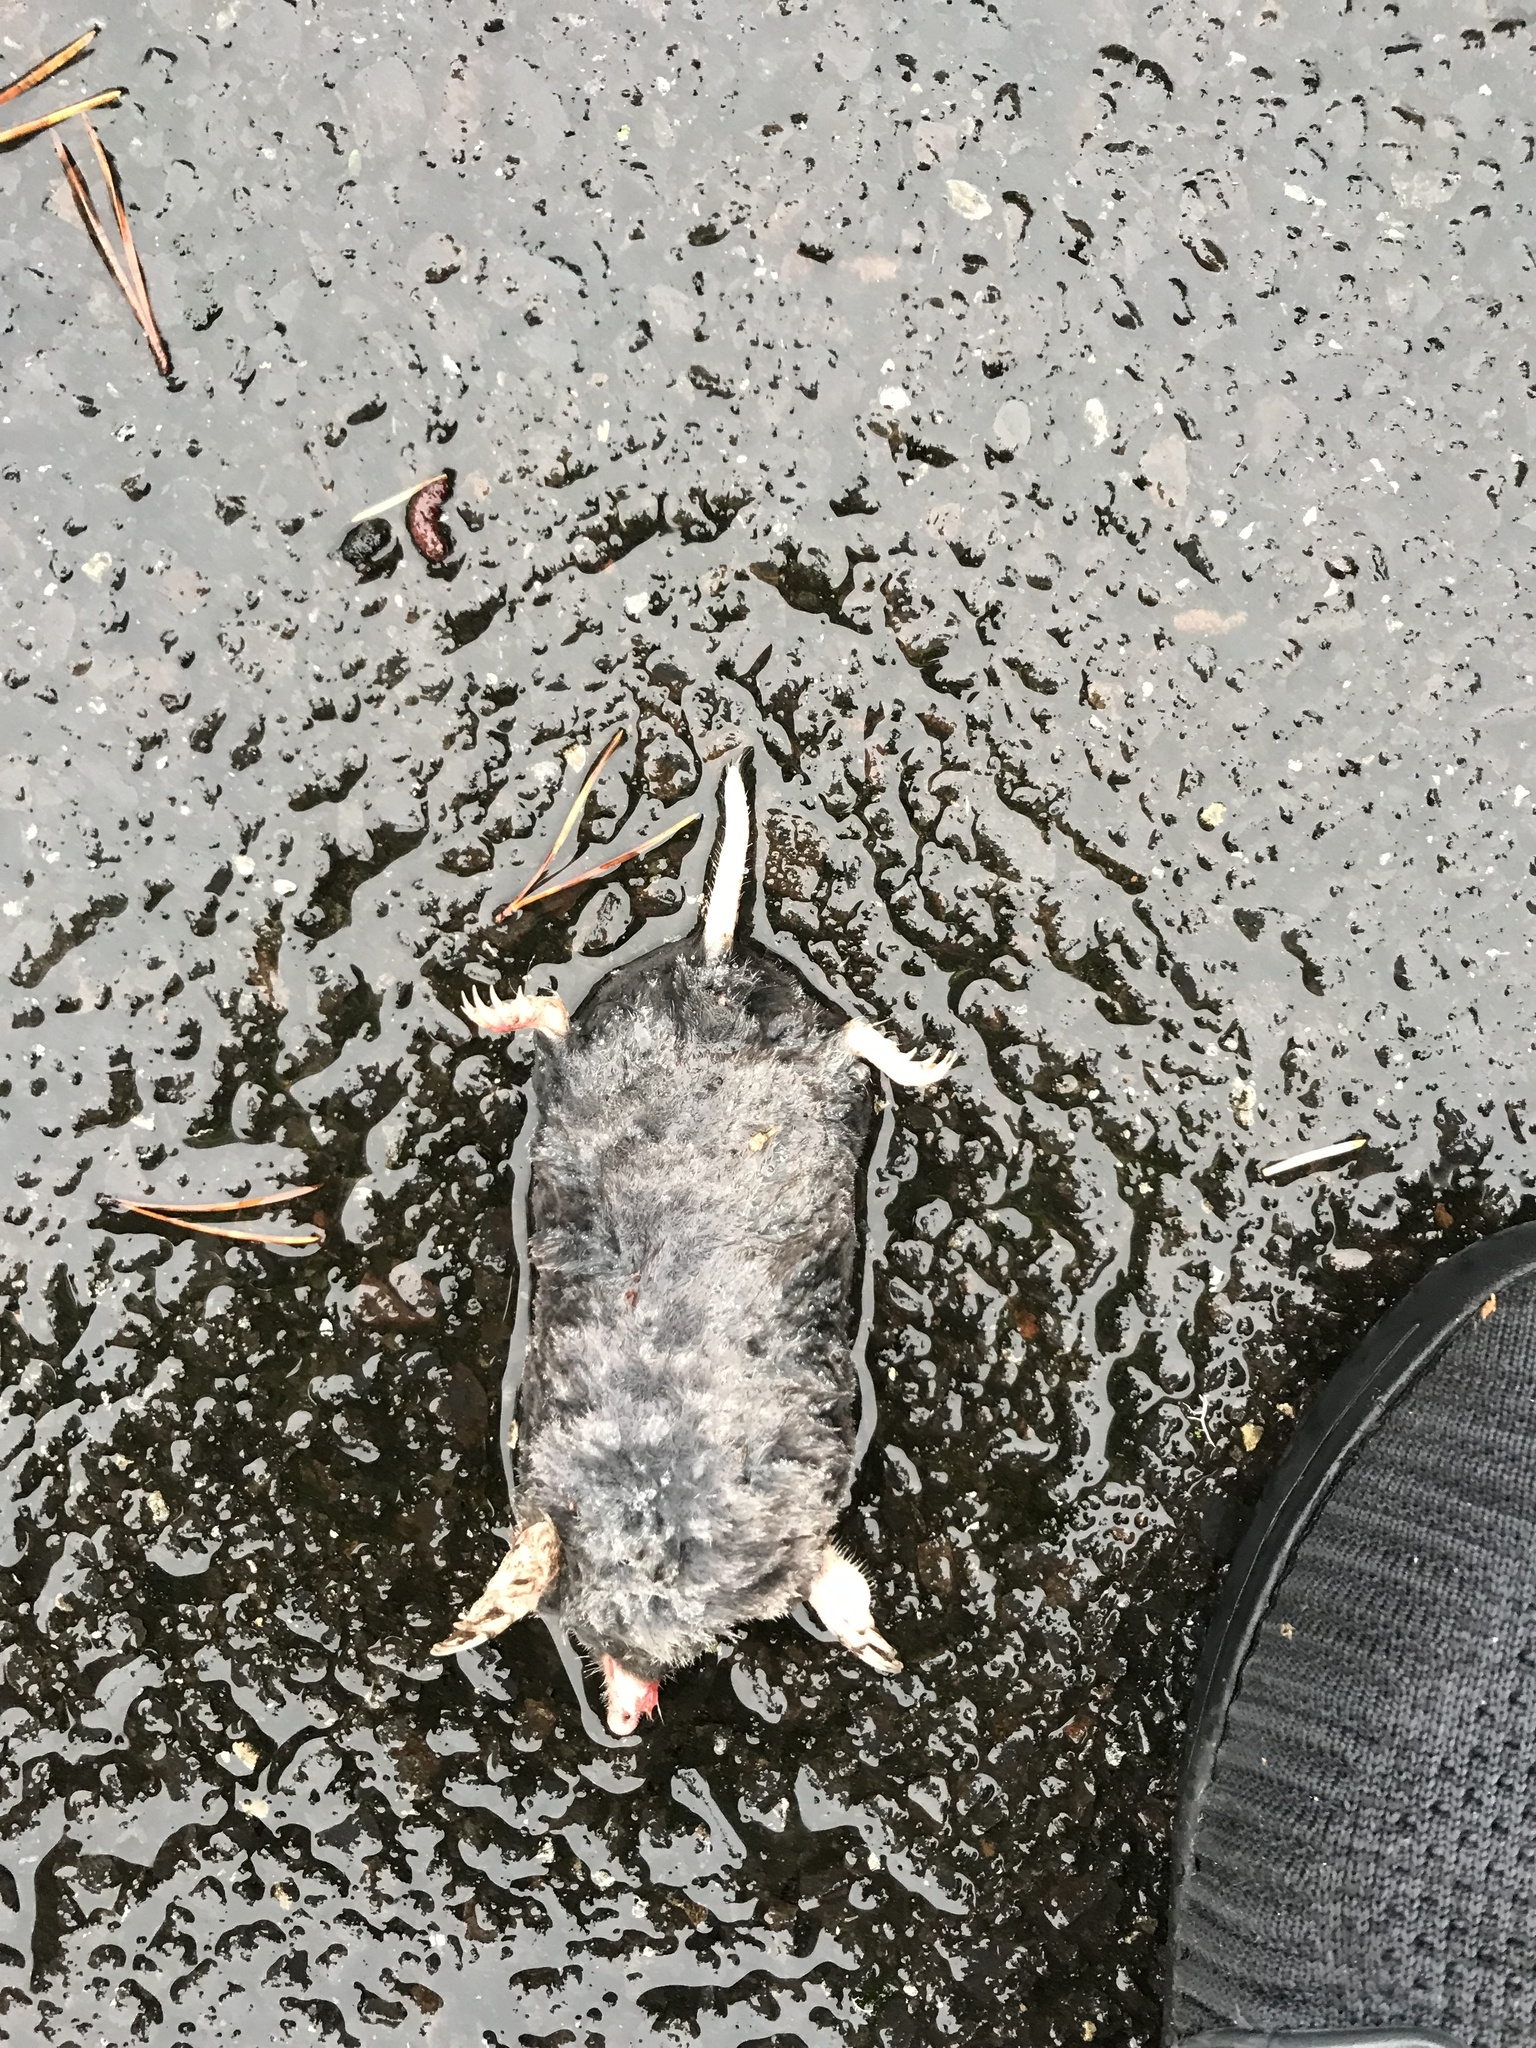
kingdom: Animalia
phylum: Chordata
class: Mammalia
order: Soricomorpha
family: Talpidae
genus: Scapanus
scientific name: Scapanus orarius
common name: Coast mole
